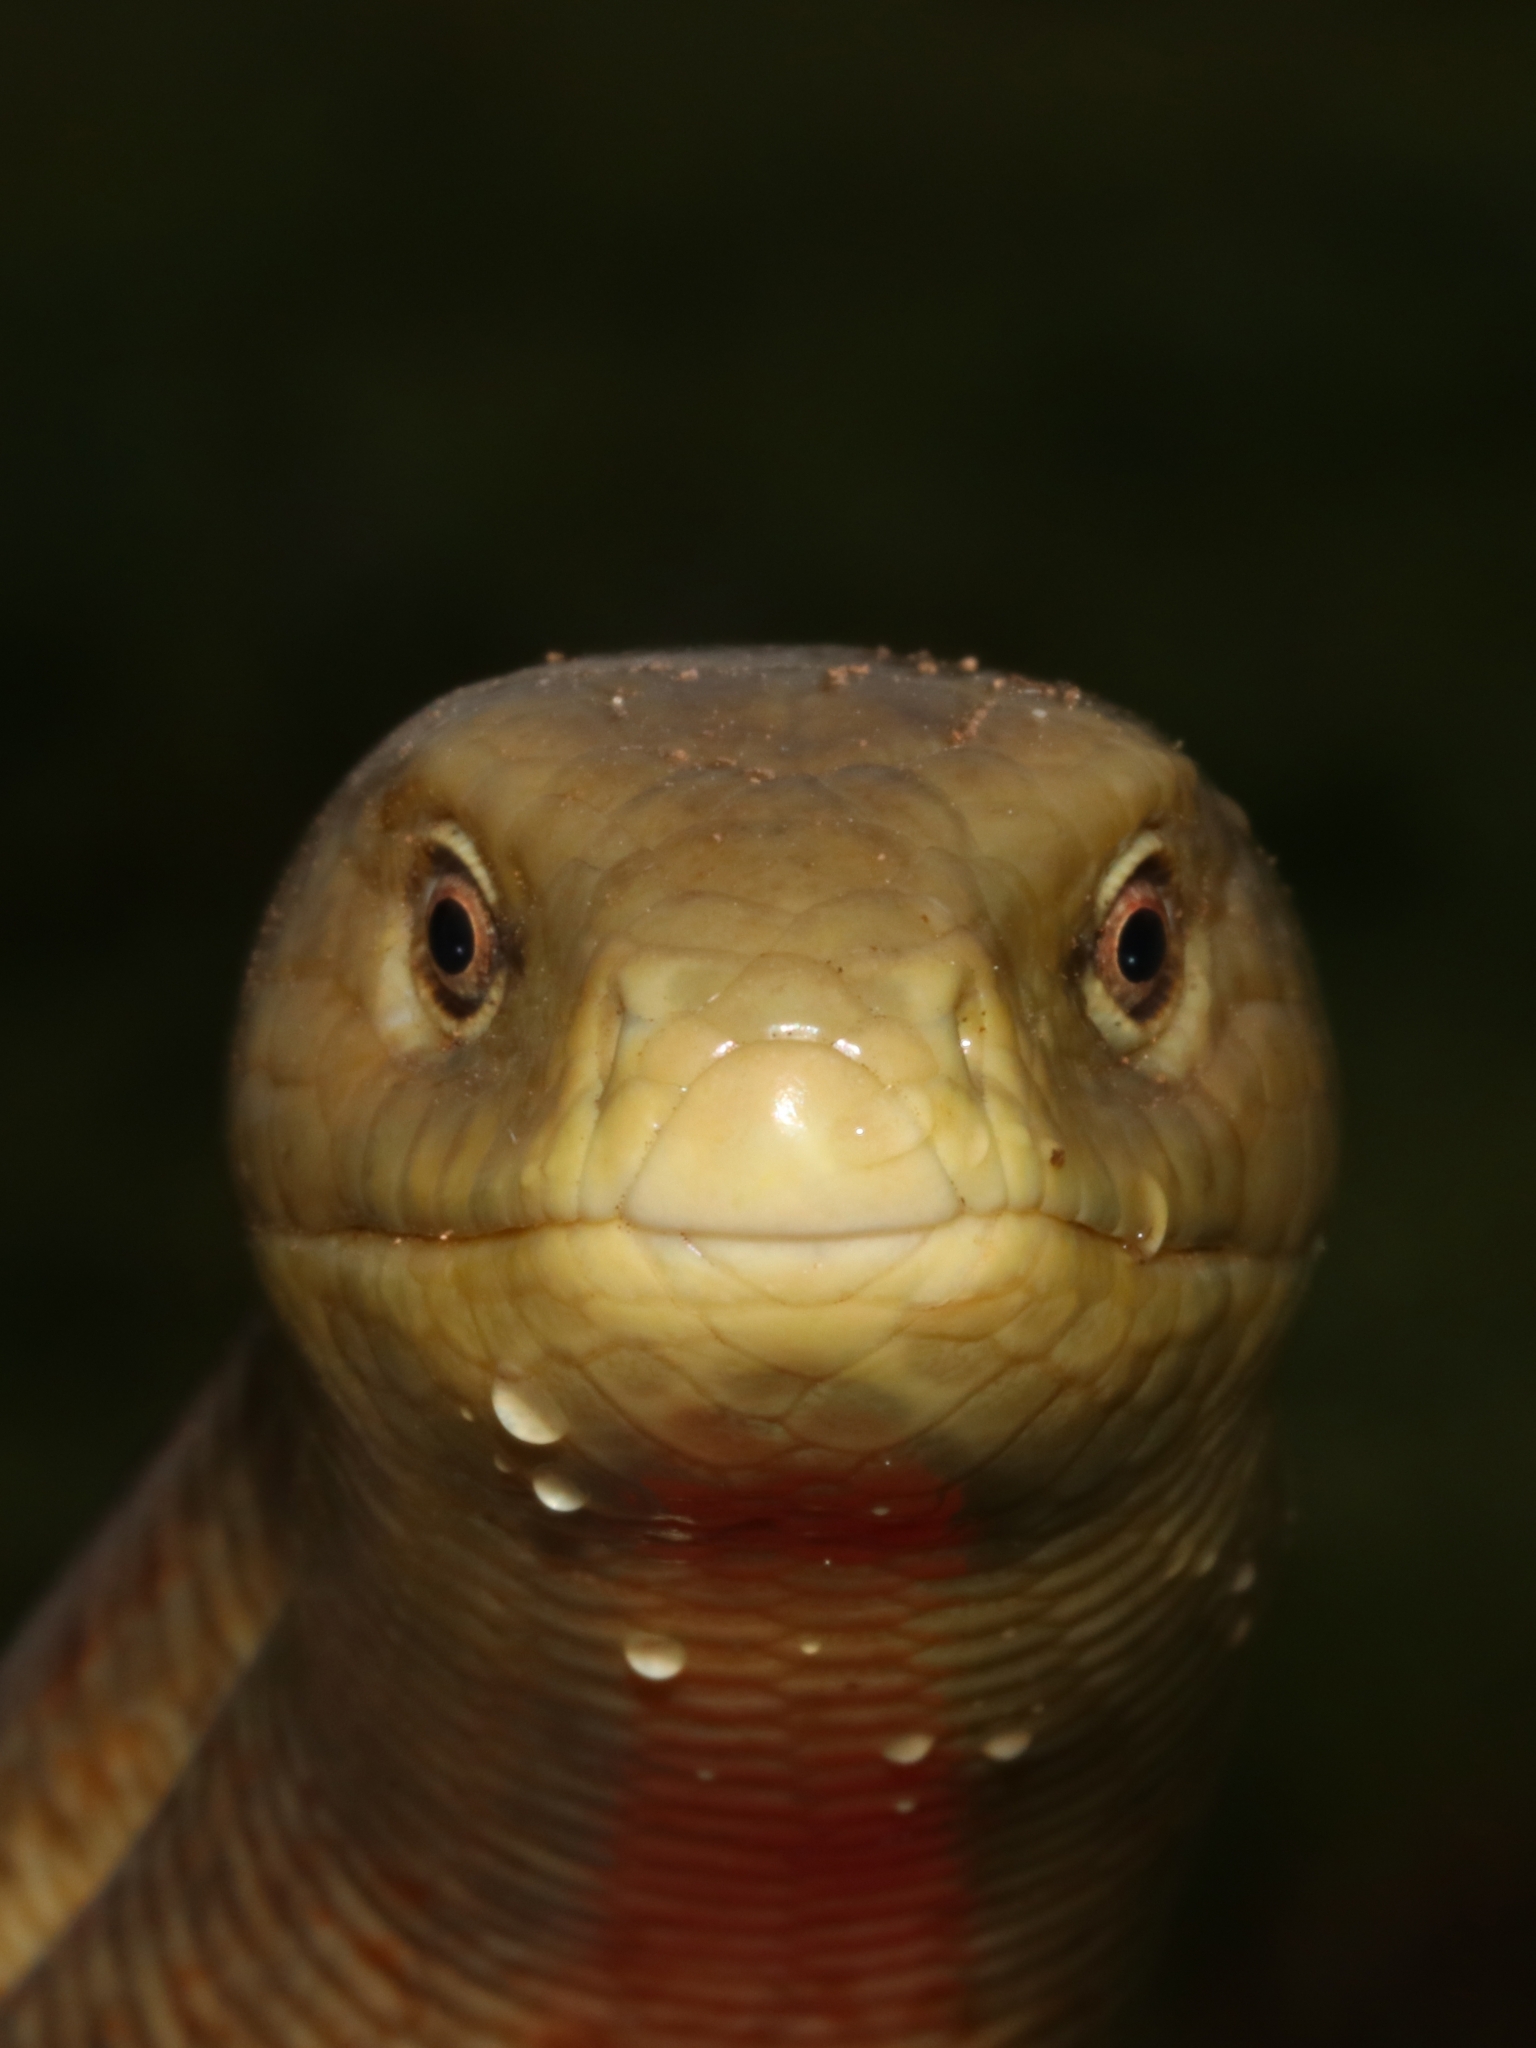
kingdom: Animalia
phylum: Chordata
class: Squamata
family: Anguidae
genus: Pseudopus
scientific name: Pseudopus apodus
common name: European glass lizard
